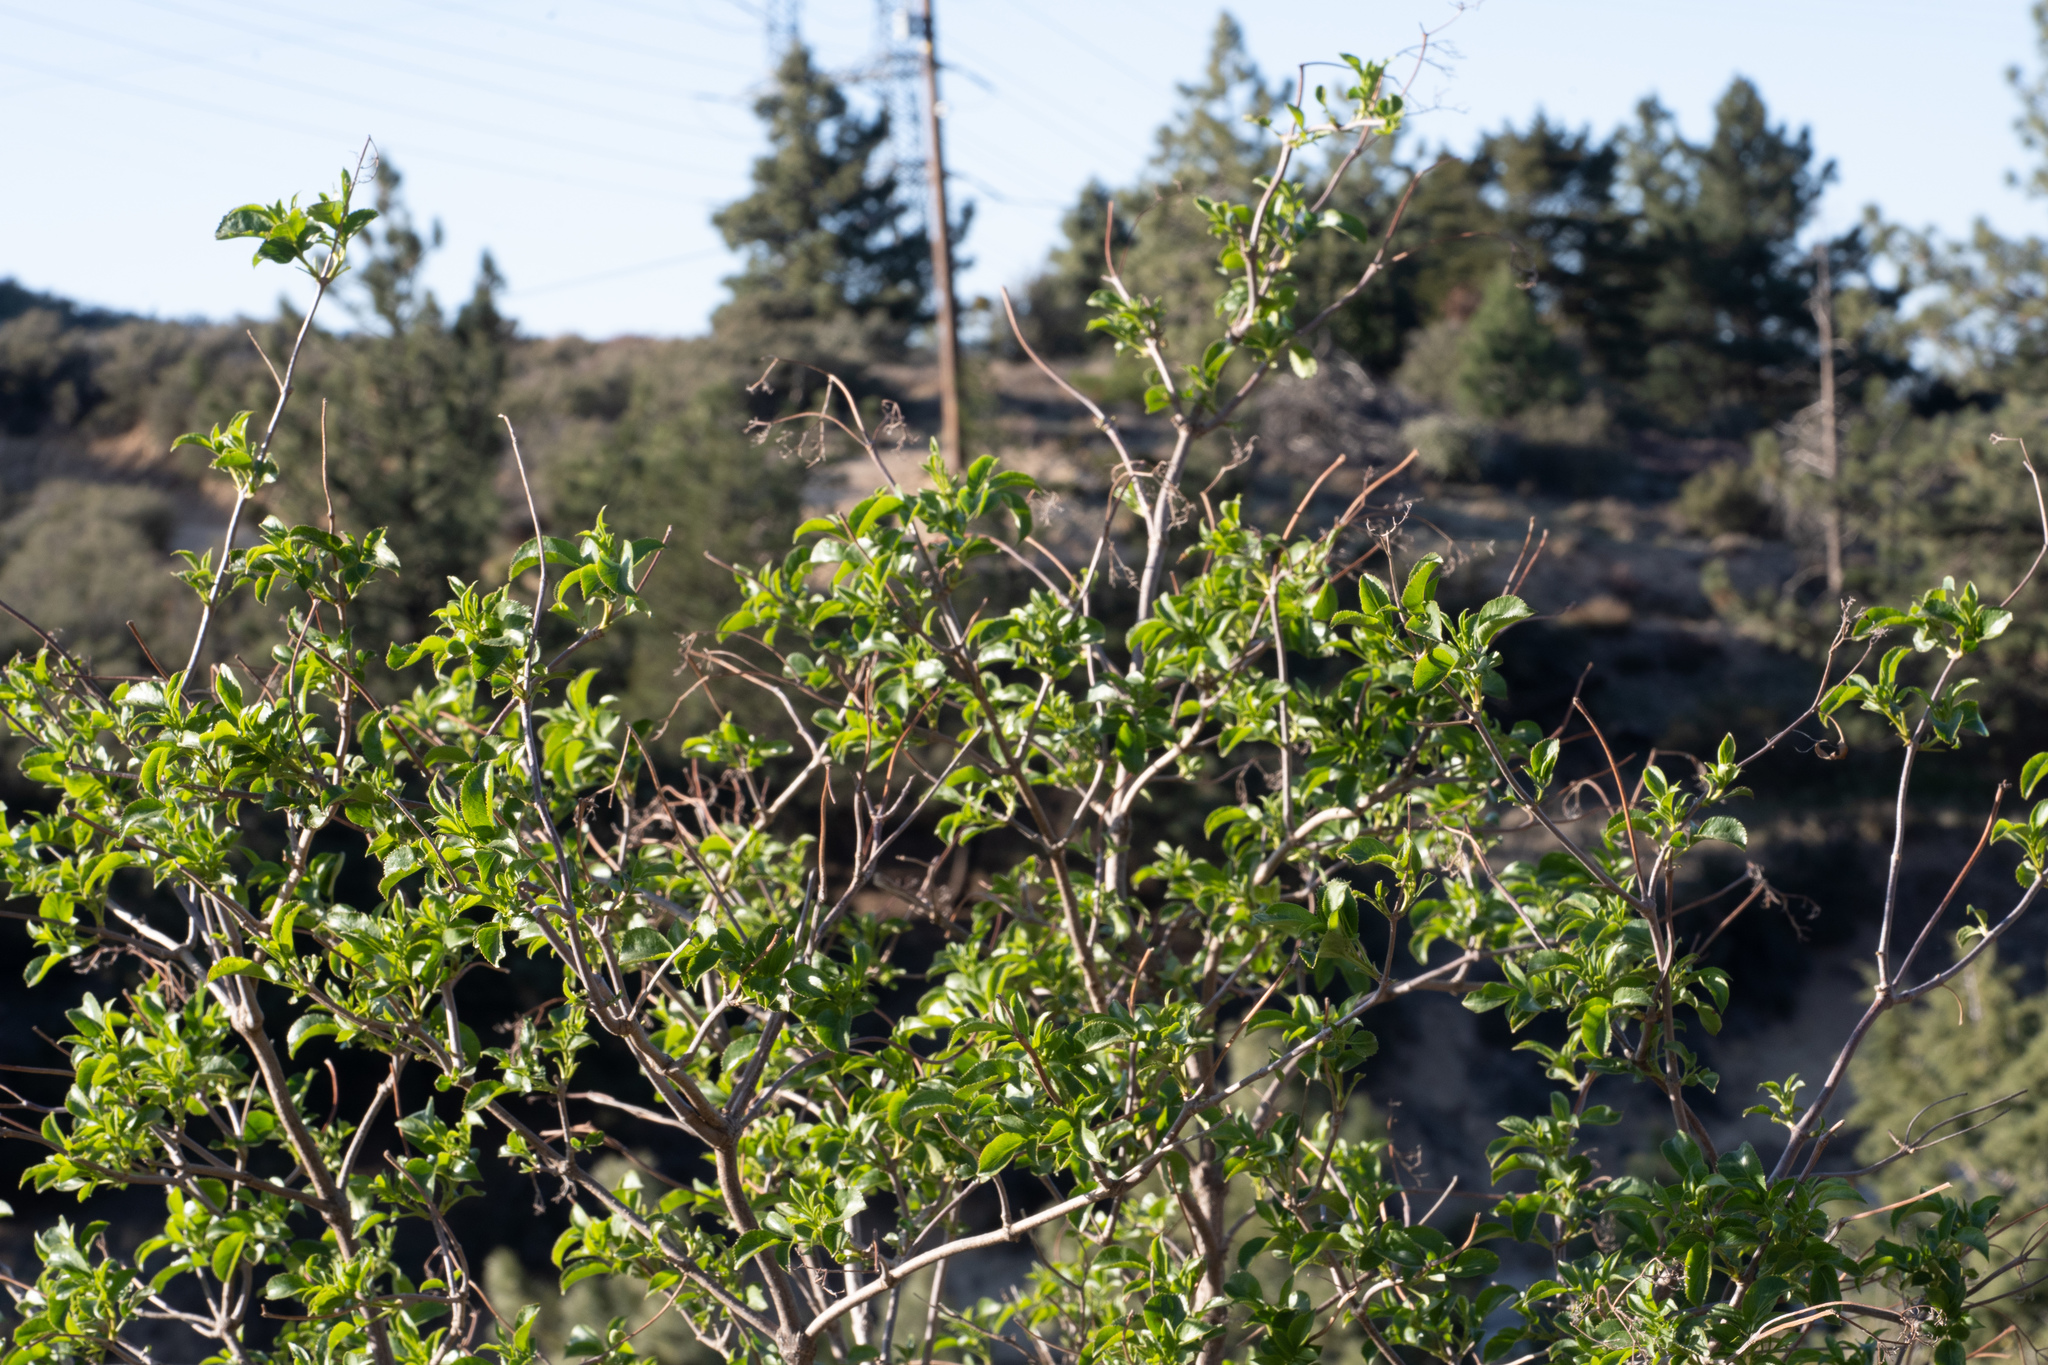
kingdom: Plantae
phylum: Tracheophyta
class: Magnoliopsida
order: Dipsacales
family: Viburnaceae
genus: Sambucus
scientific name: Sambucus cerulea
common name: Blue elder
